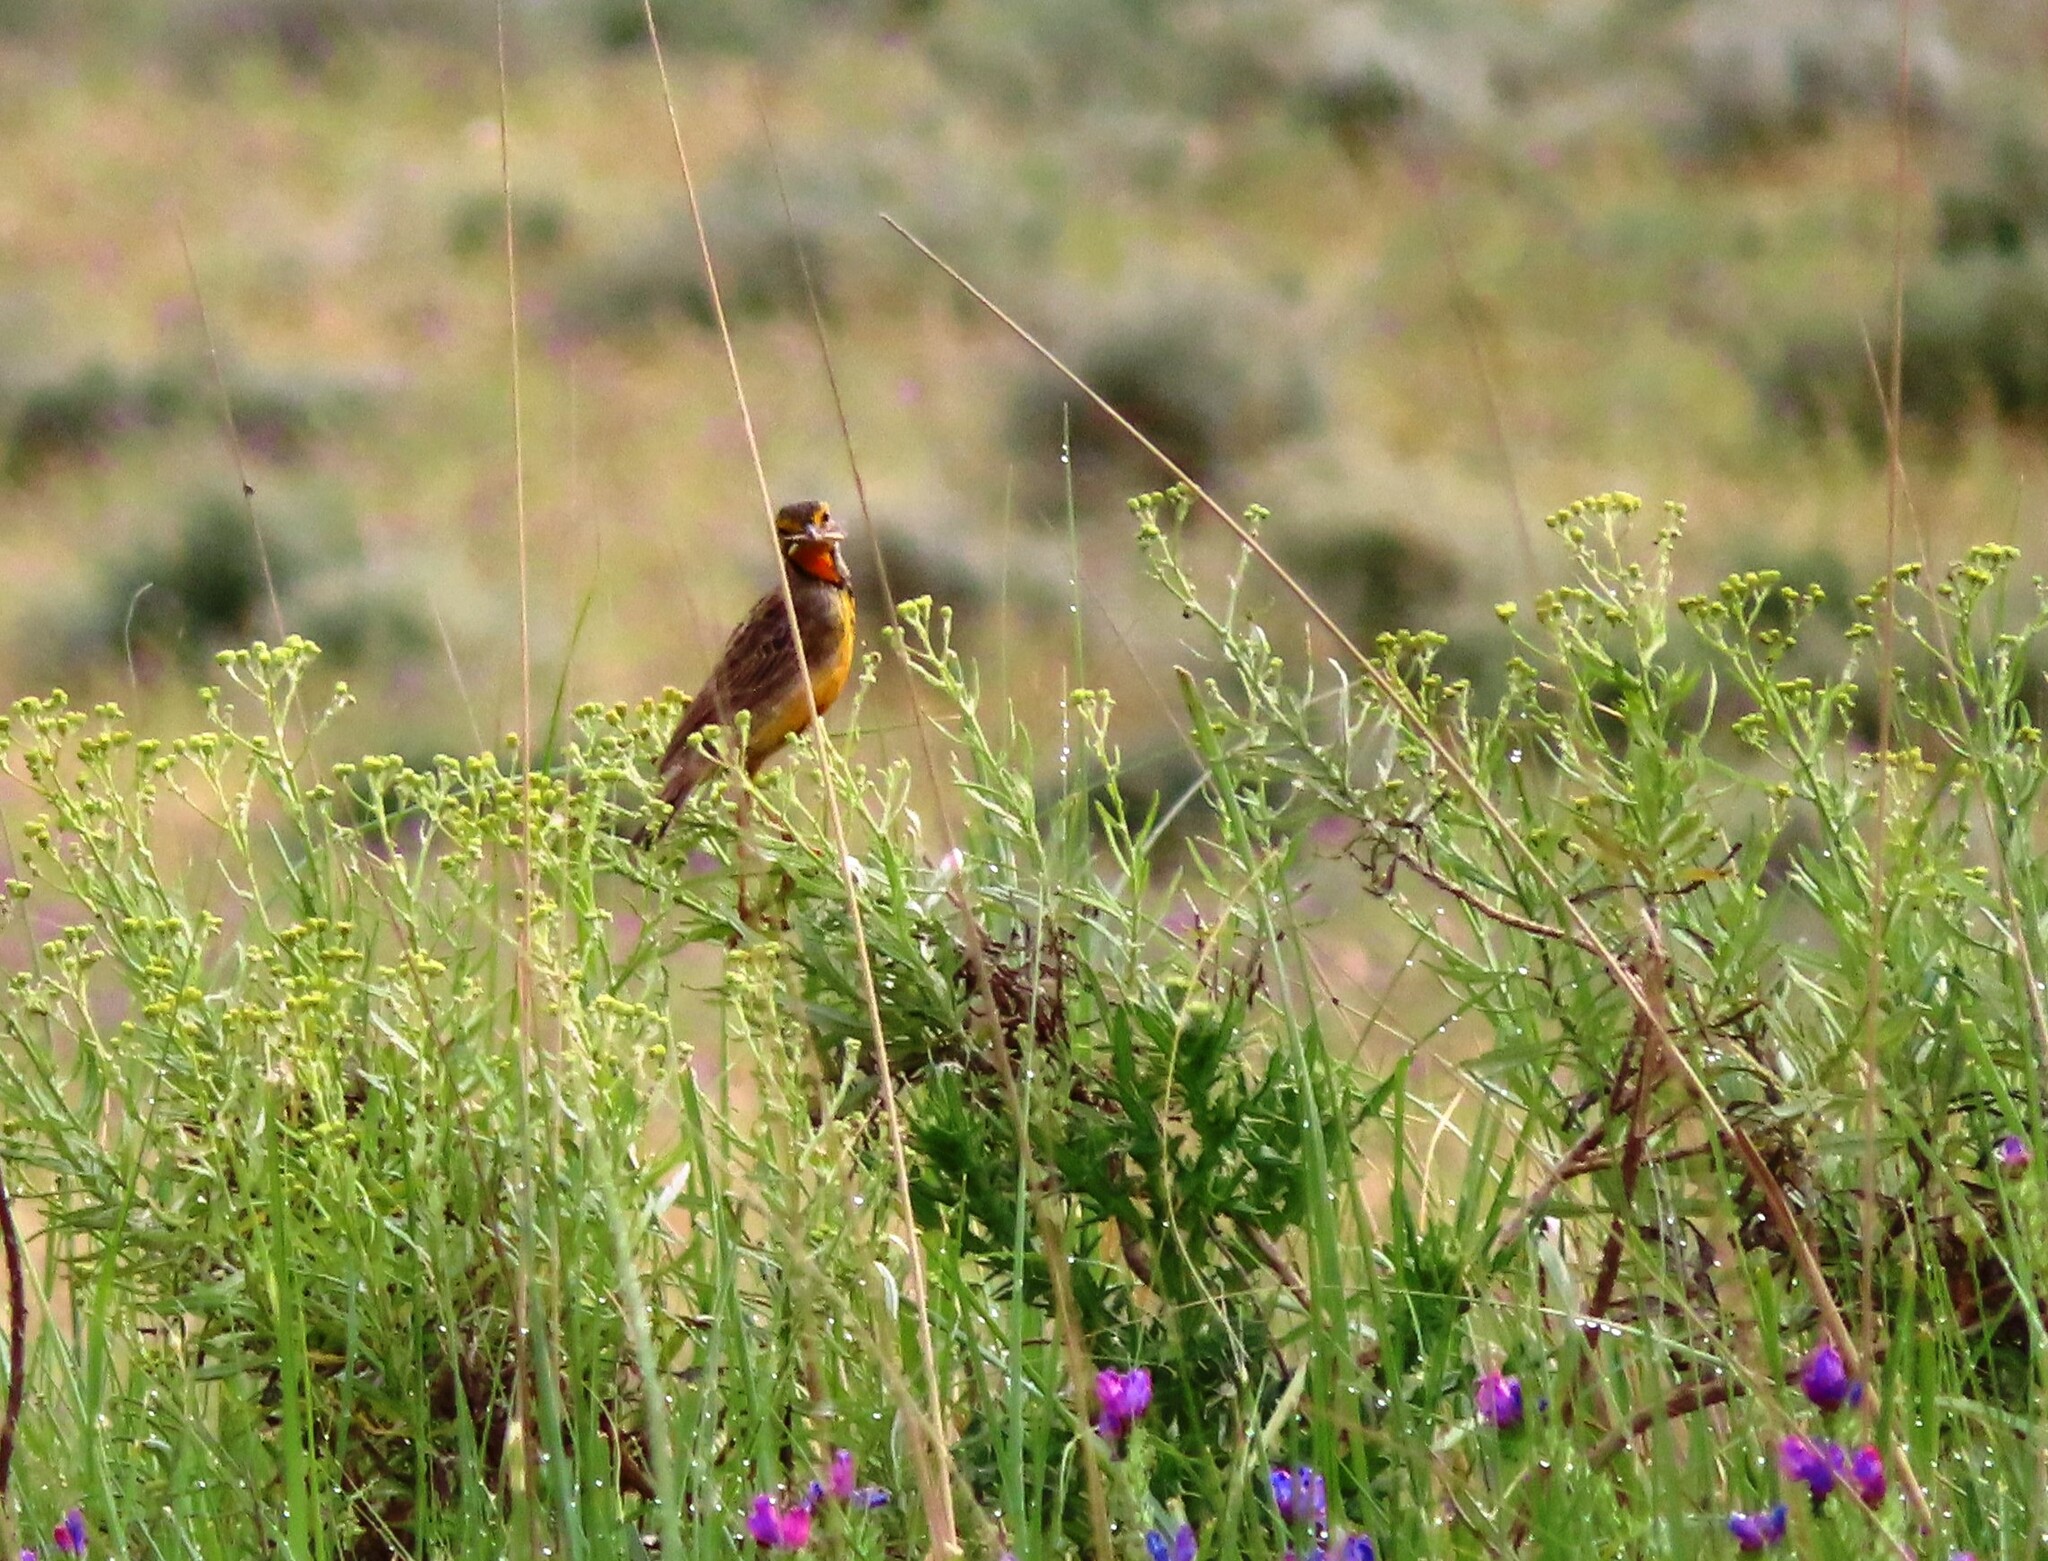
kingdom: Animalia
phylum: Chordata
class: Aves
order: Passeriformes
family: Motacillidae
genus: Macronyx
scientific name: Macronyx capensis
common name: Cape longclaw
